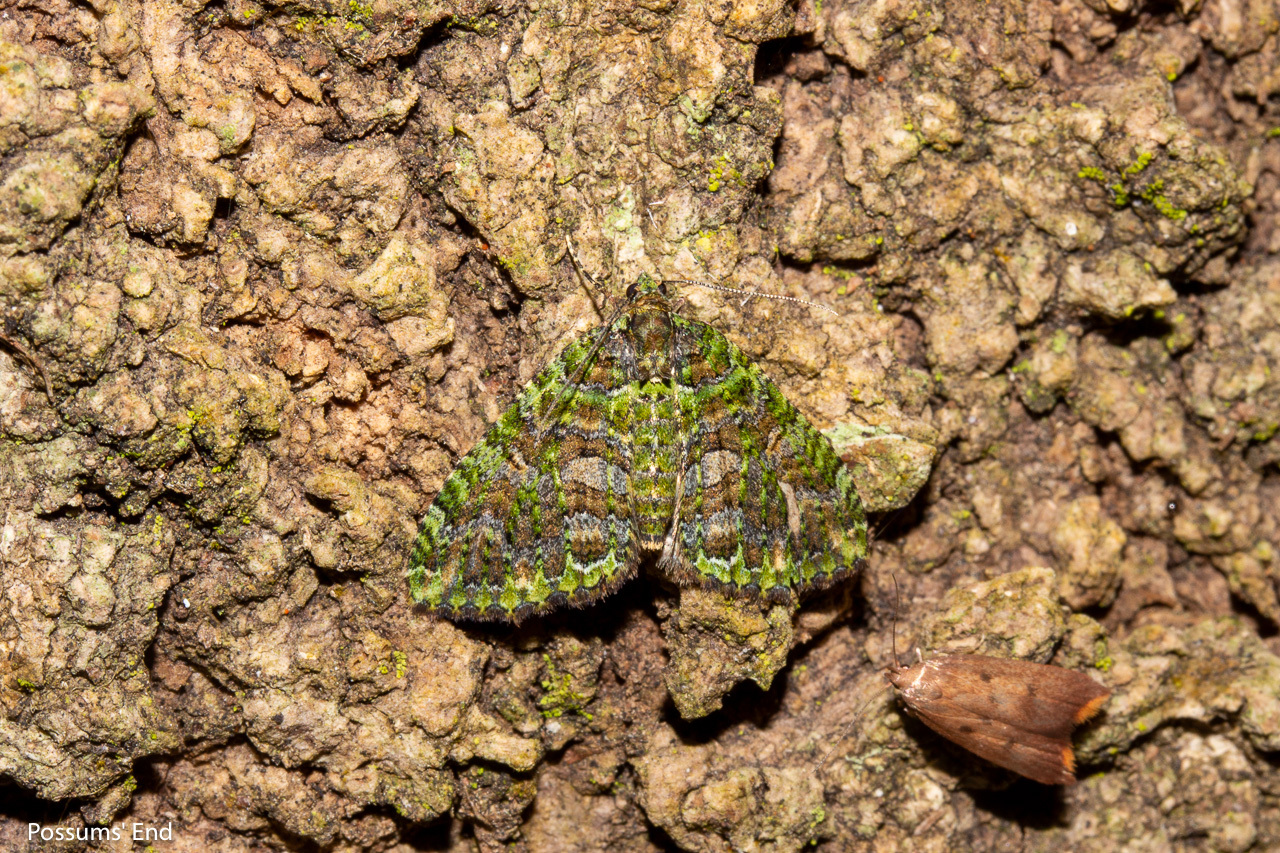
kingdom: Animalia
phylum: Arthropoda
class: Insecta
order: Lepidoptera
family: Geometridae
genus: Austrocidaria
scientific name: Austrocidaria similata
